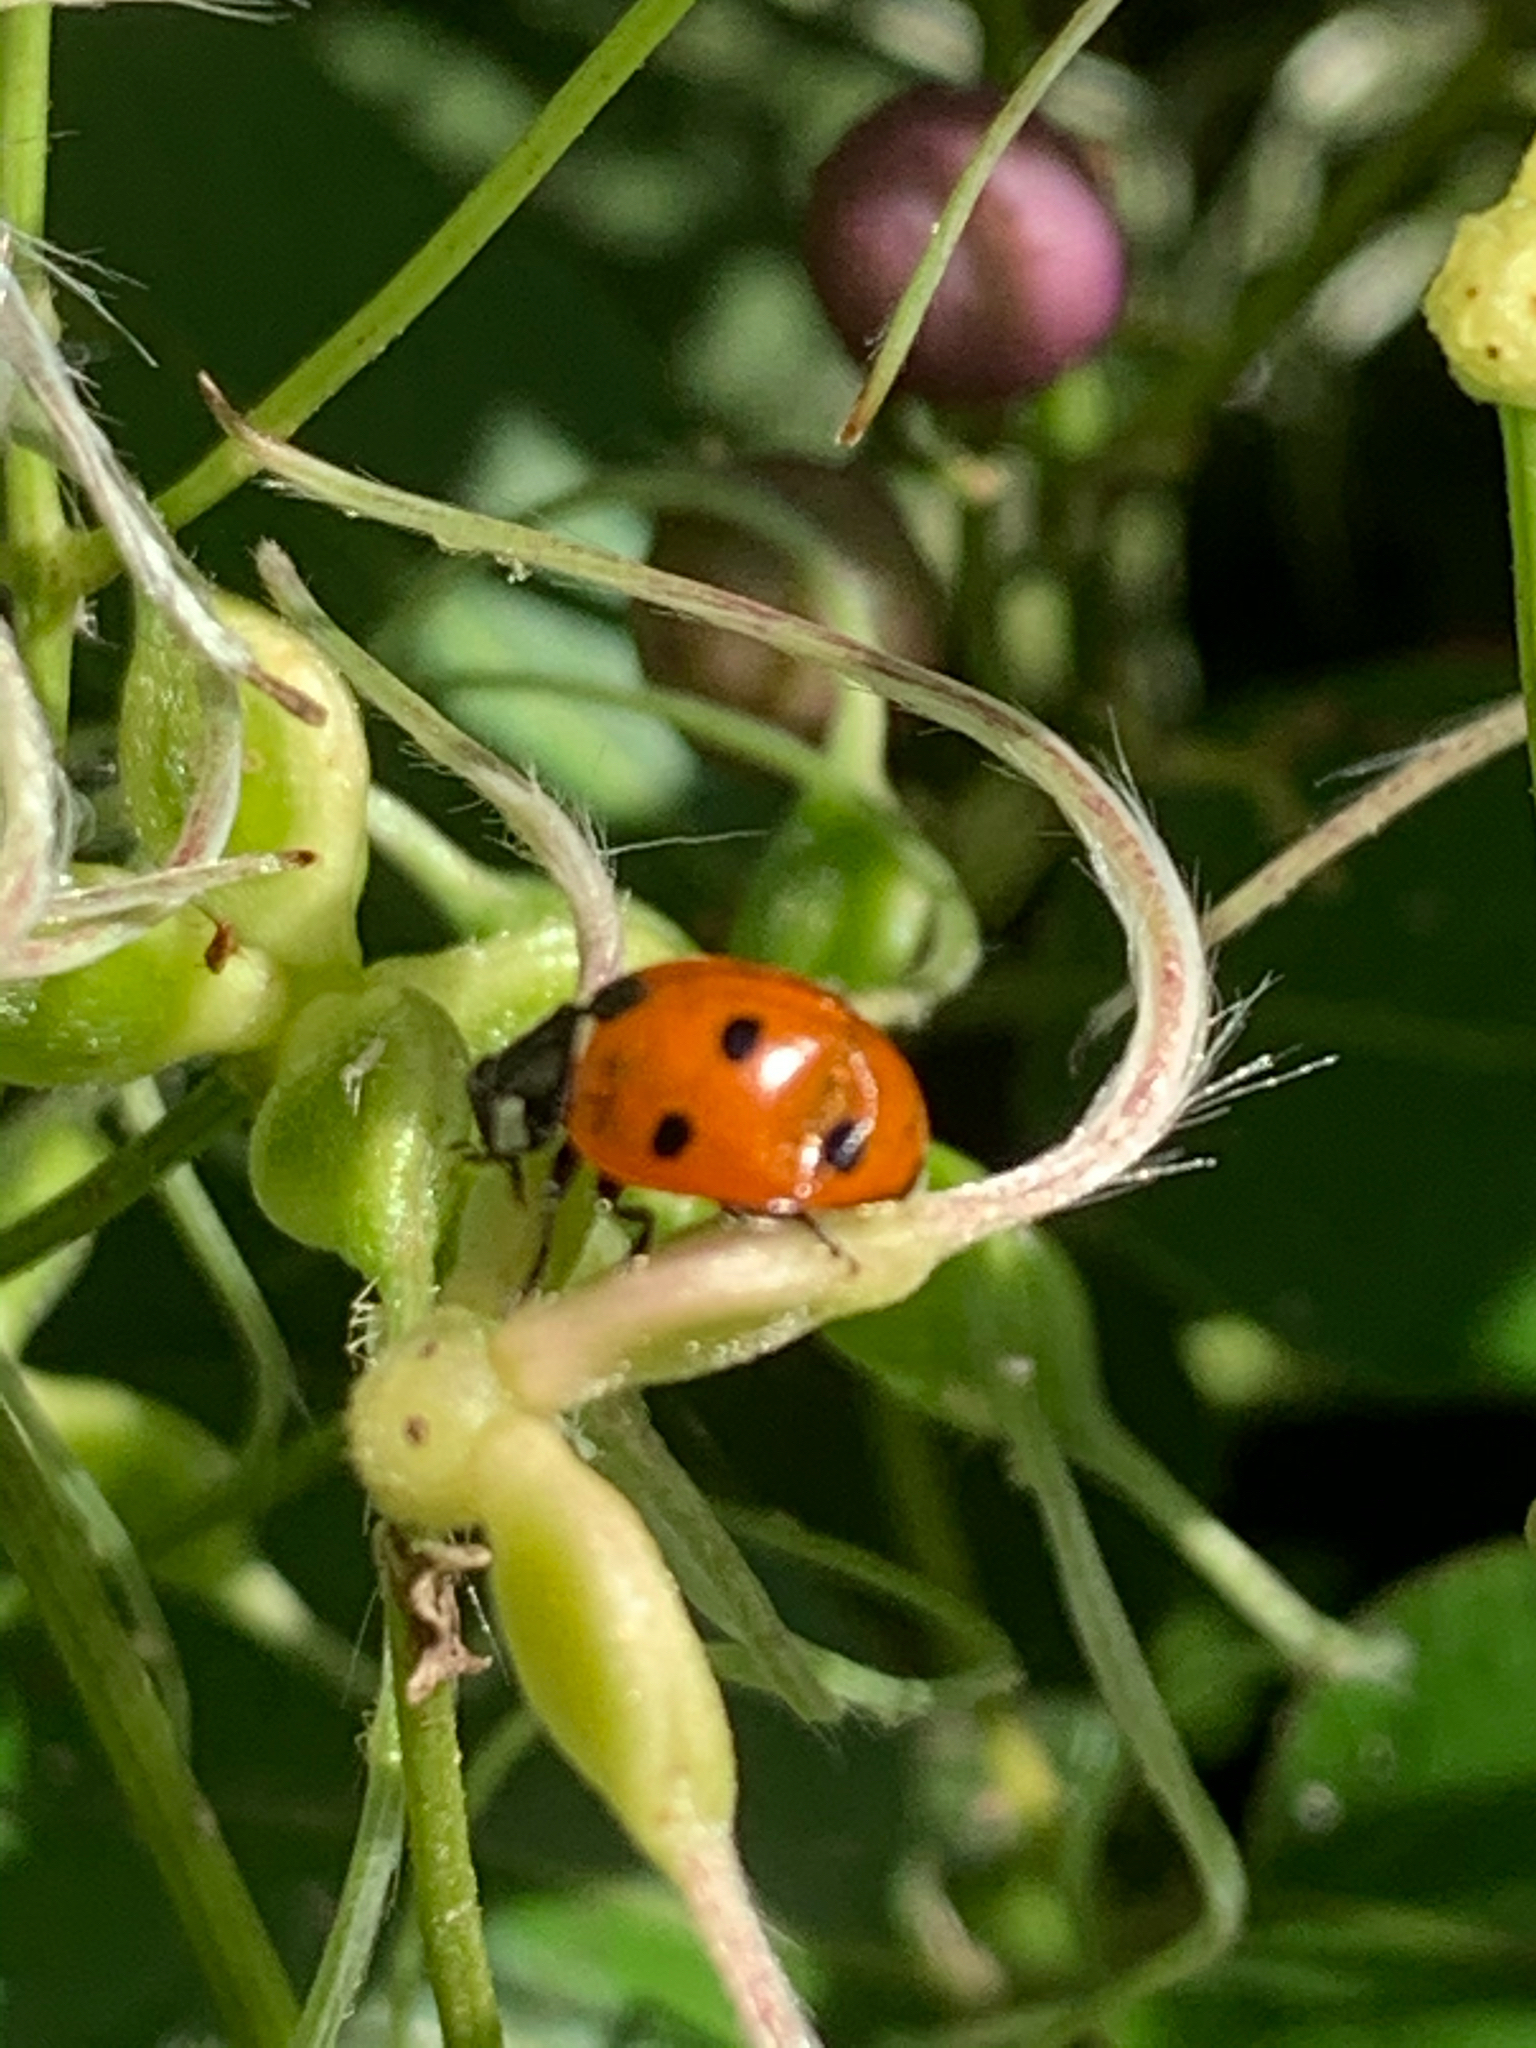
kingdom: Animalia
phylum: Arthropoda
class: Insecta
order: Coleoptera
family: Coccinellidae
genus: Coccinella
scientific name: Coccinella septempunctata
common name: Sevenspotted lady beetle
